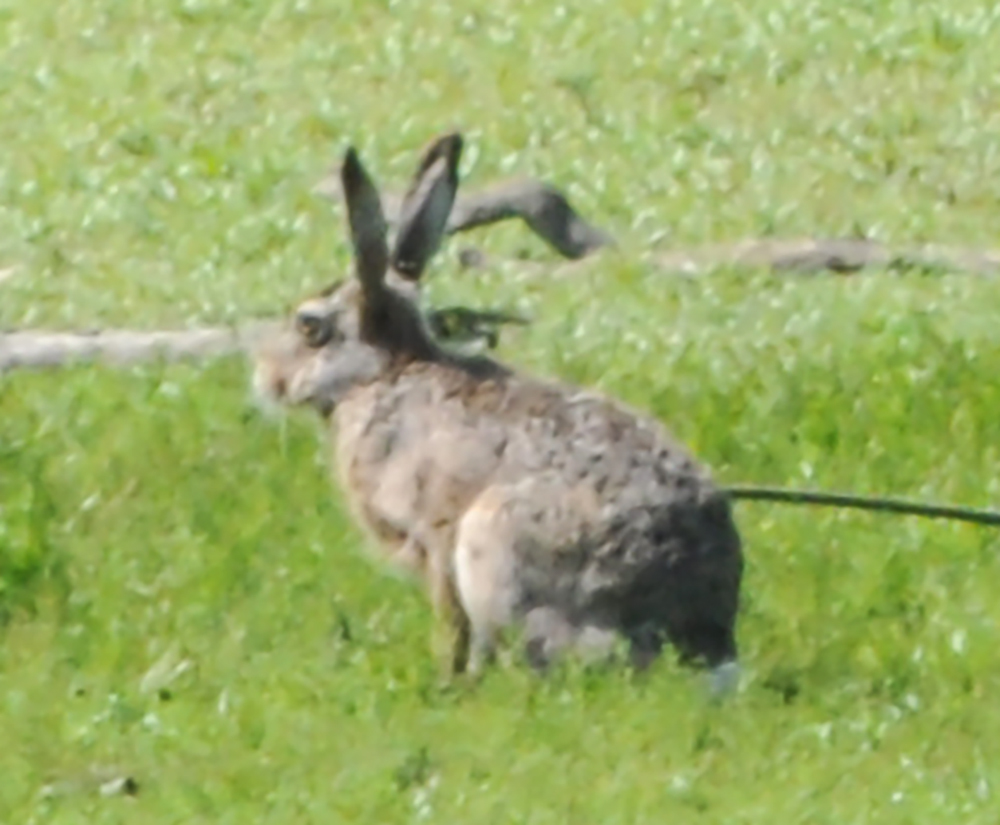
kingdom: Animalia
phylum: Chordata
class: Mammalia
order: Lagomorpha
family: Leporidae
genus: Lepus
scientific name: Lepus europaeus
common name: European hare
